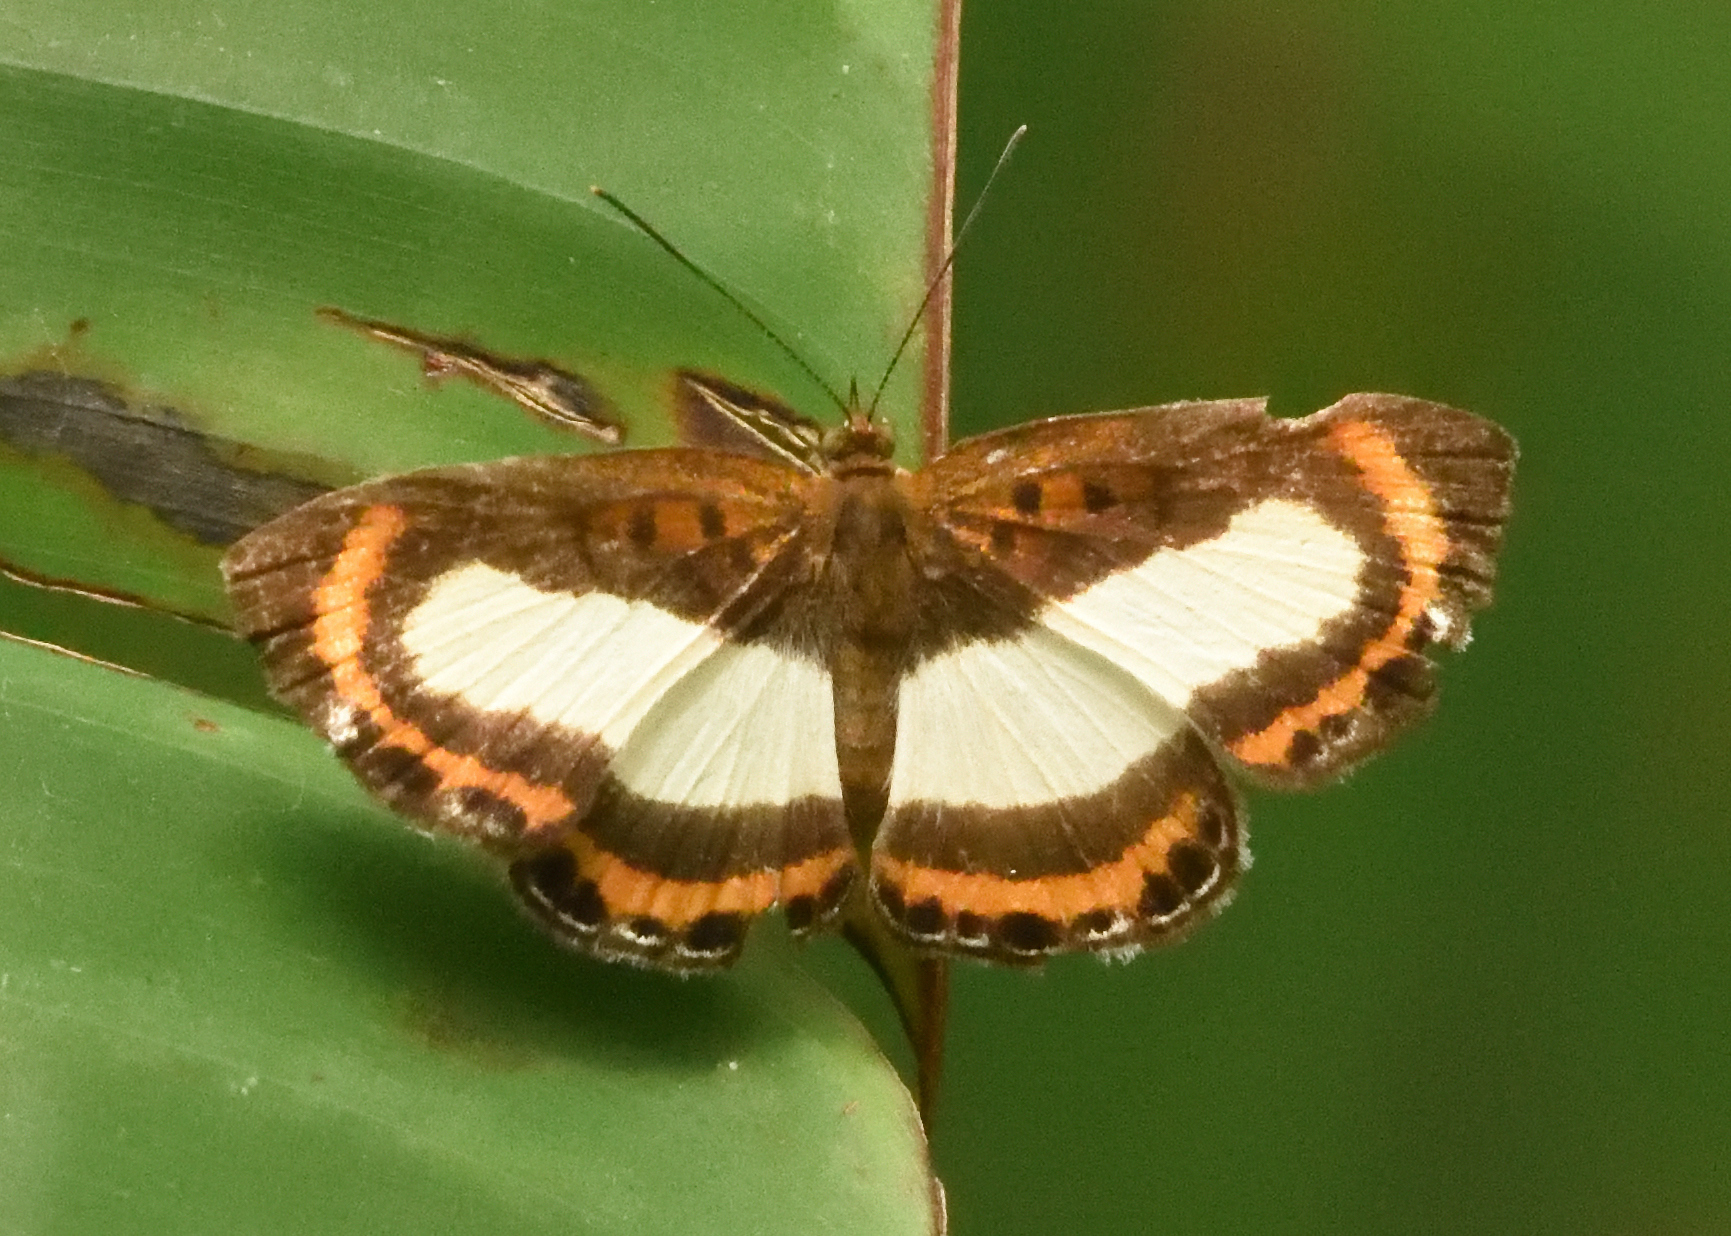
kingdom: Animalia
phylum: Arthropoda
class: Insecta
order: Lepidoptera
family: Riodinidae
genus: Nymula
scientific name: Nymula gela
